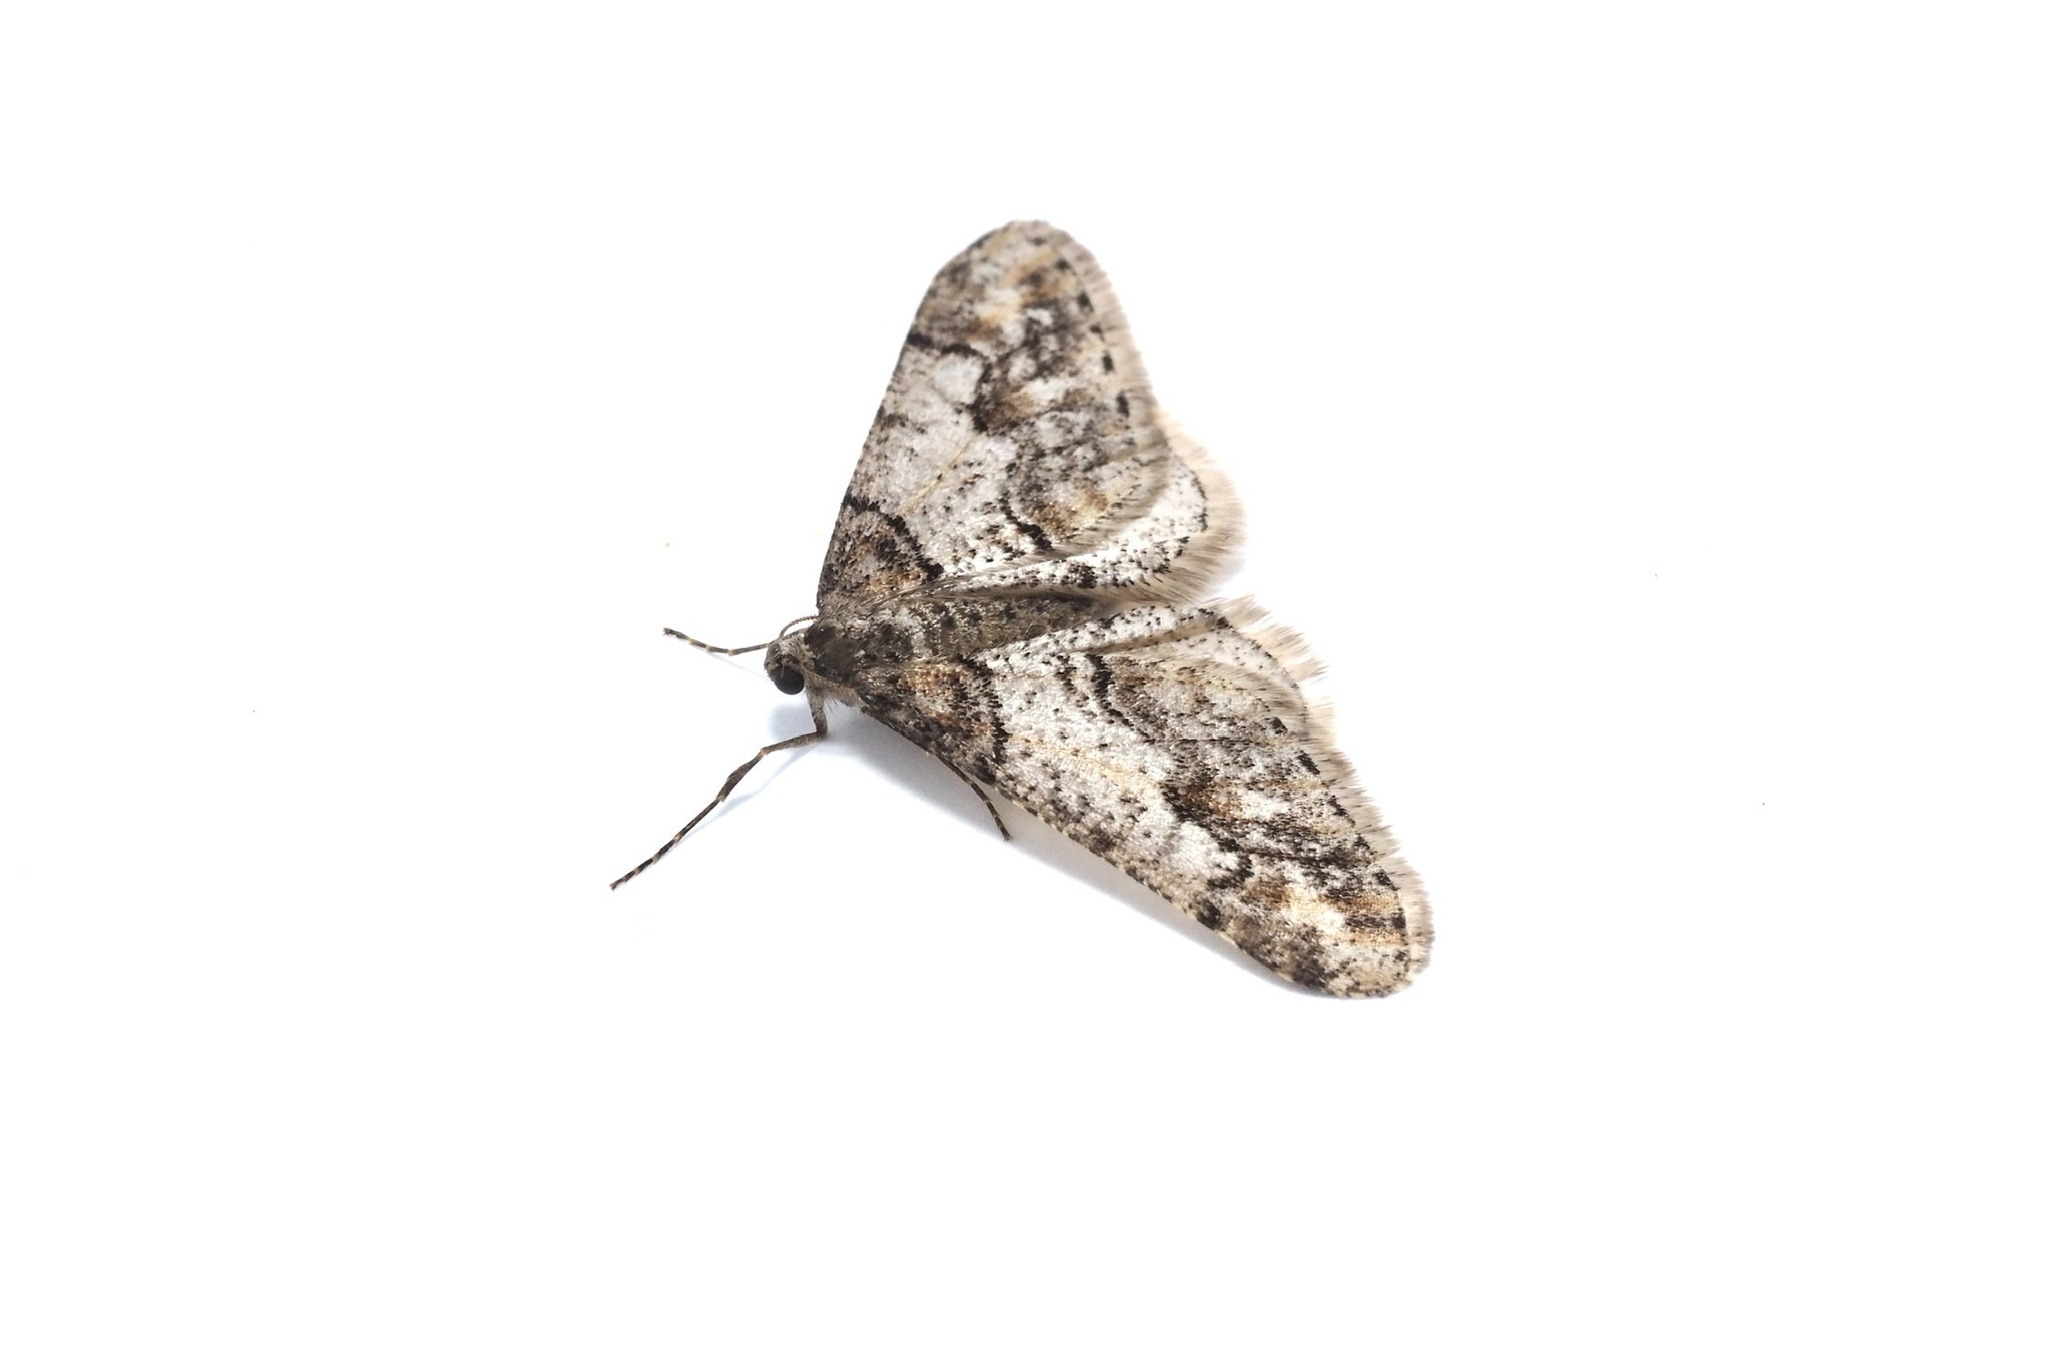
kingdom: Animalia
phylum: Arthropoda
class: Insecta
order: Lepidoptera
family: Geometridae
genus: Agriopis
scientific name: Agriopis dira
